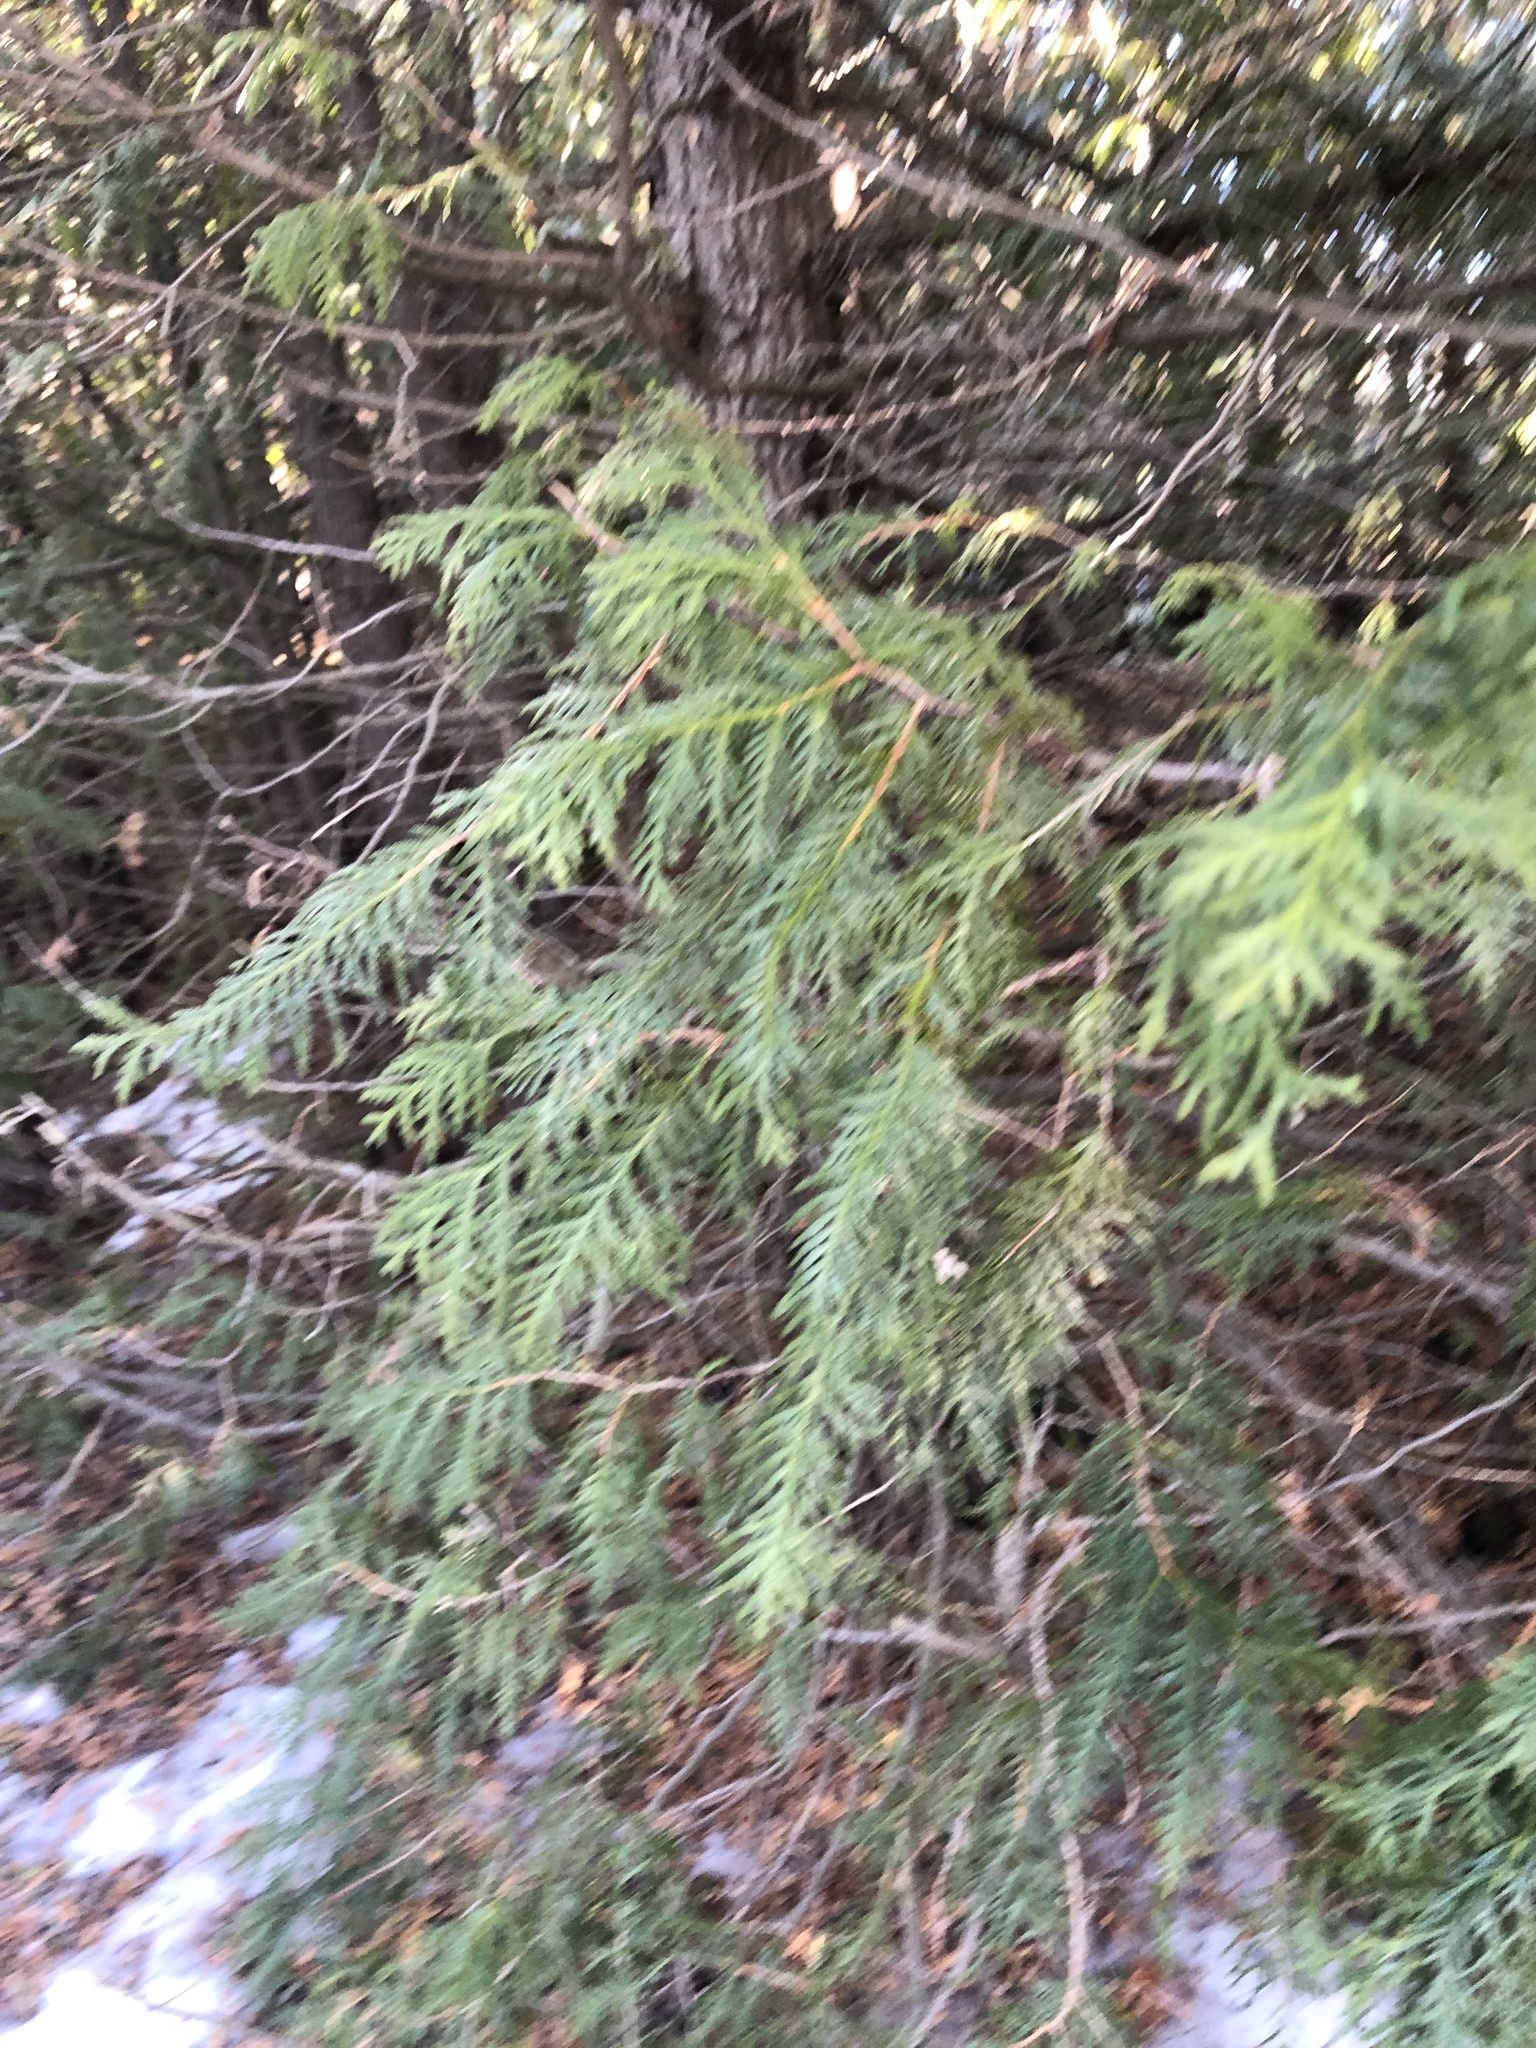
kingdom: Plantae
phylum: Tracheophyta
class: Pinopsida
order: Pinales
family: Cupressaceae
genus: Thuja
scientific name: Thuja occidentalis
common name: Northern white-cedar
